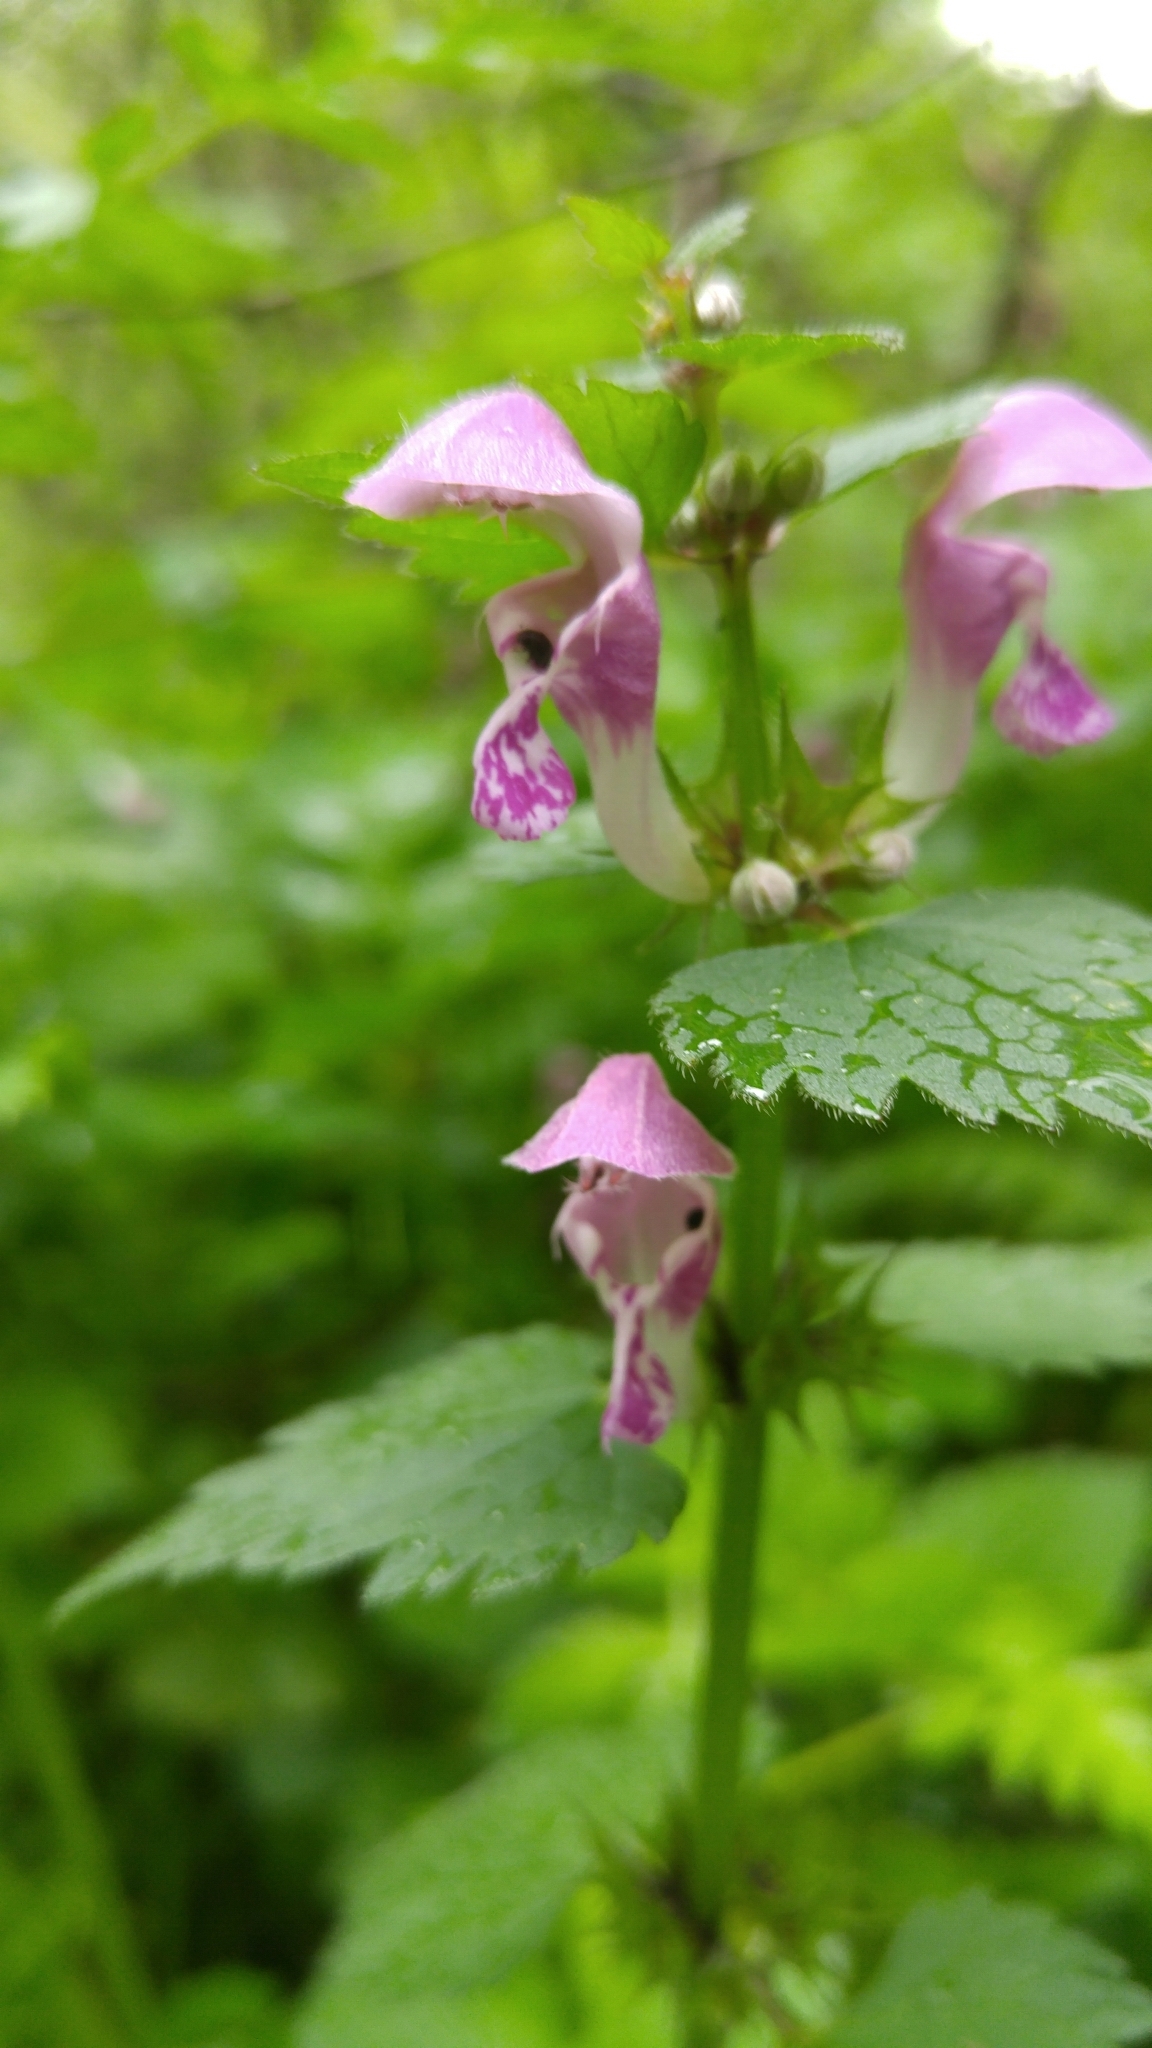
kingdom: Plantae
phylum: Tracheophyta
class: Magnoliopsida
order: Lamiales
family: Lamiaceae
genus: Lamium
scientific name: Lamium maculatum
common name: Spotted dead-nettle
